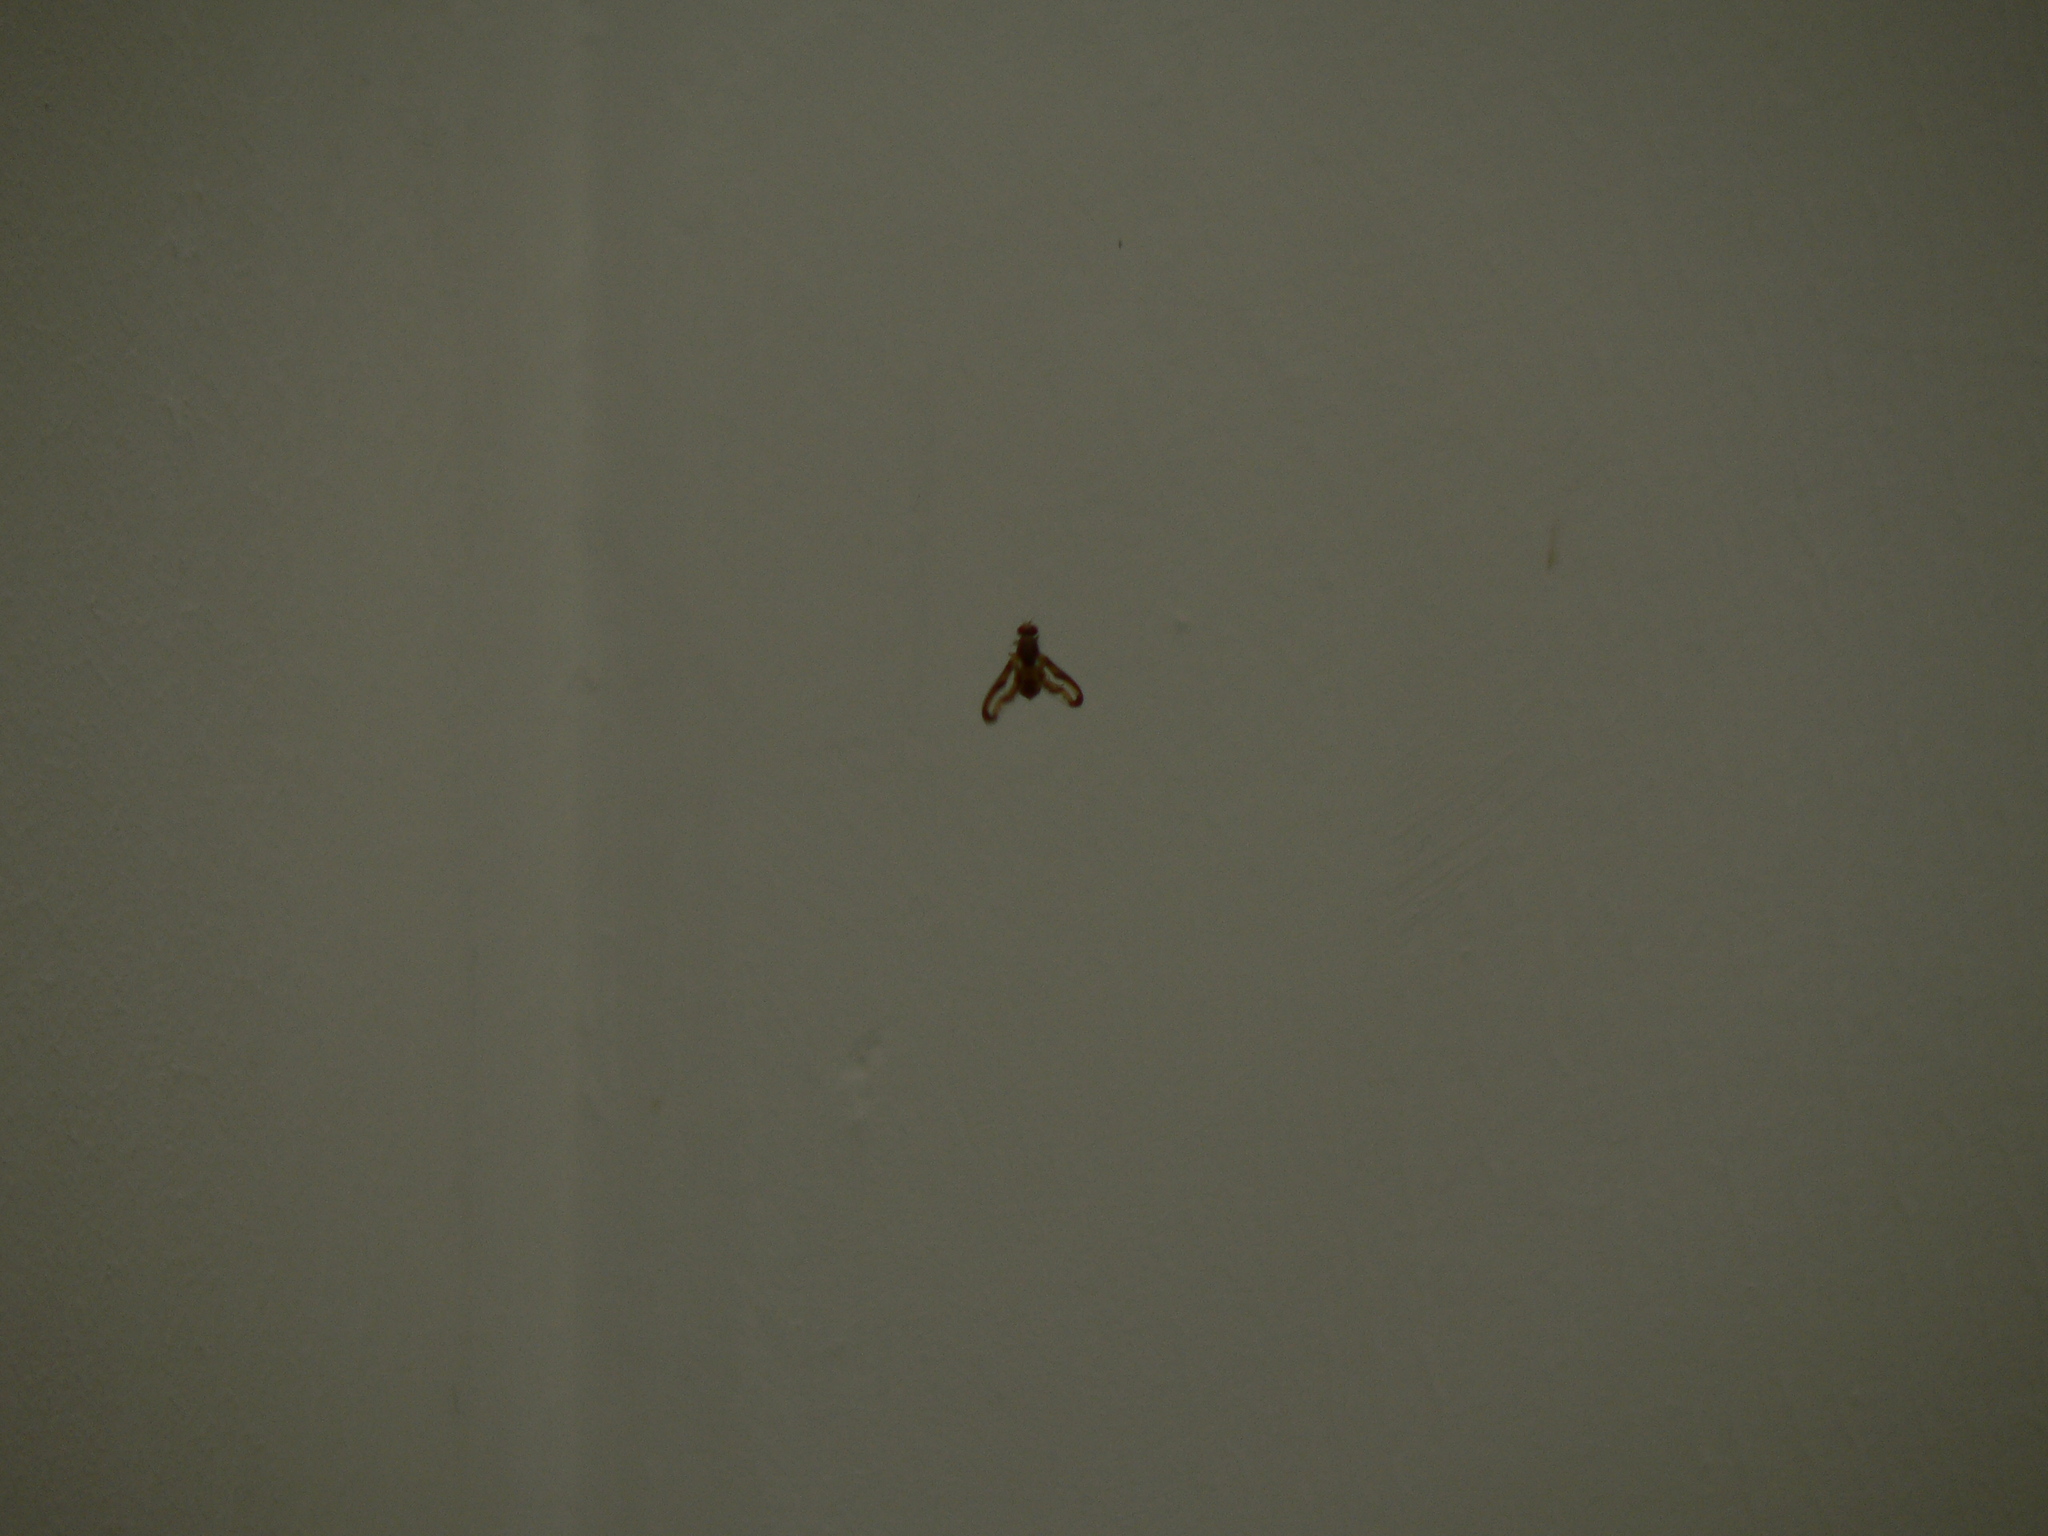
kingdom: Animalia
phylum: Arthropoda
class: Insecta
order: Diptera
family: Pallopteridae
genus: Toxonevra
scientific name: Toxonevra muliebris
